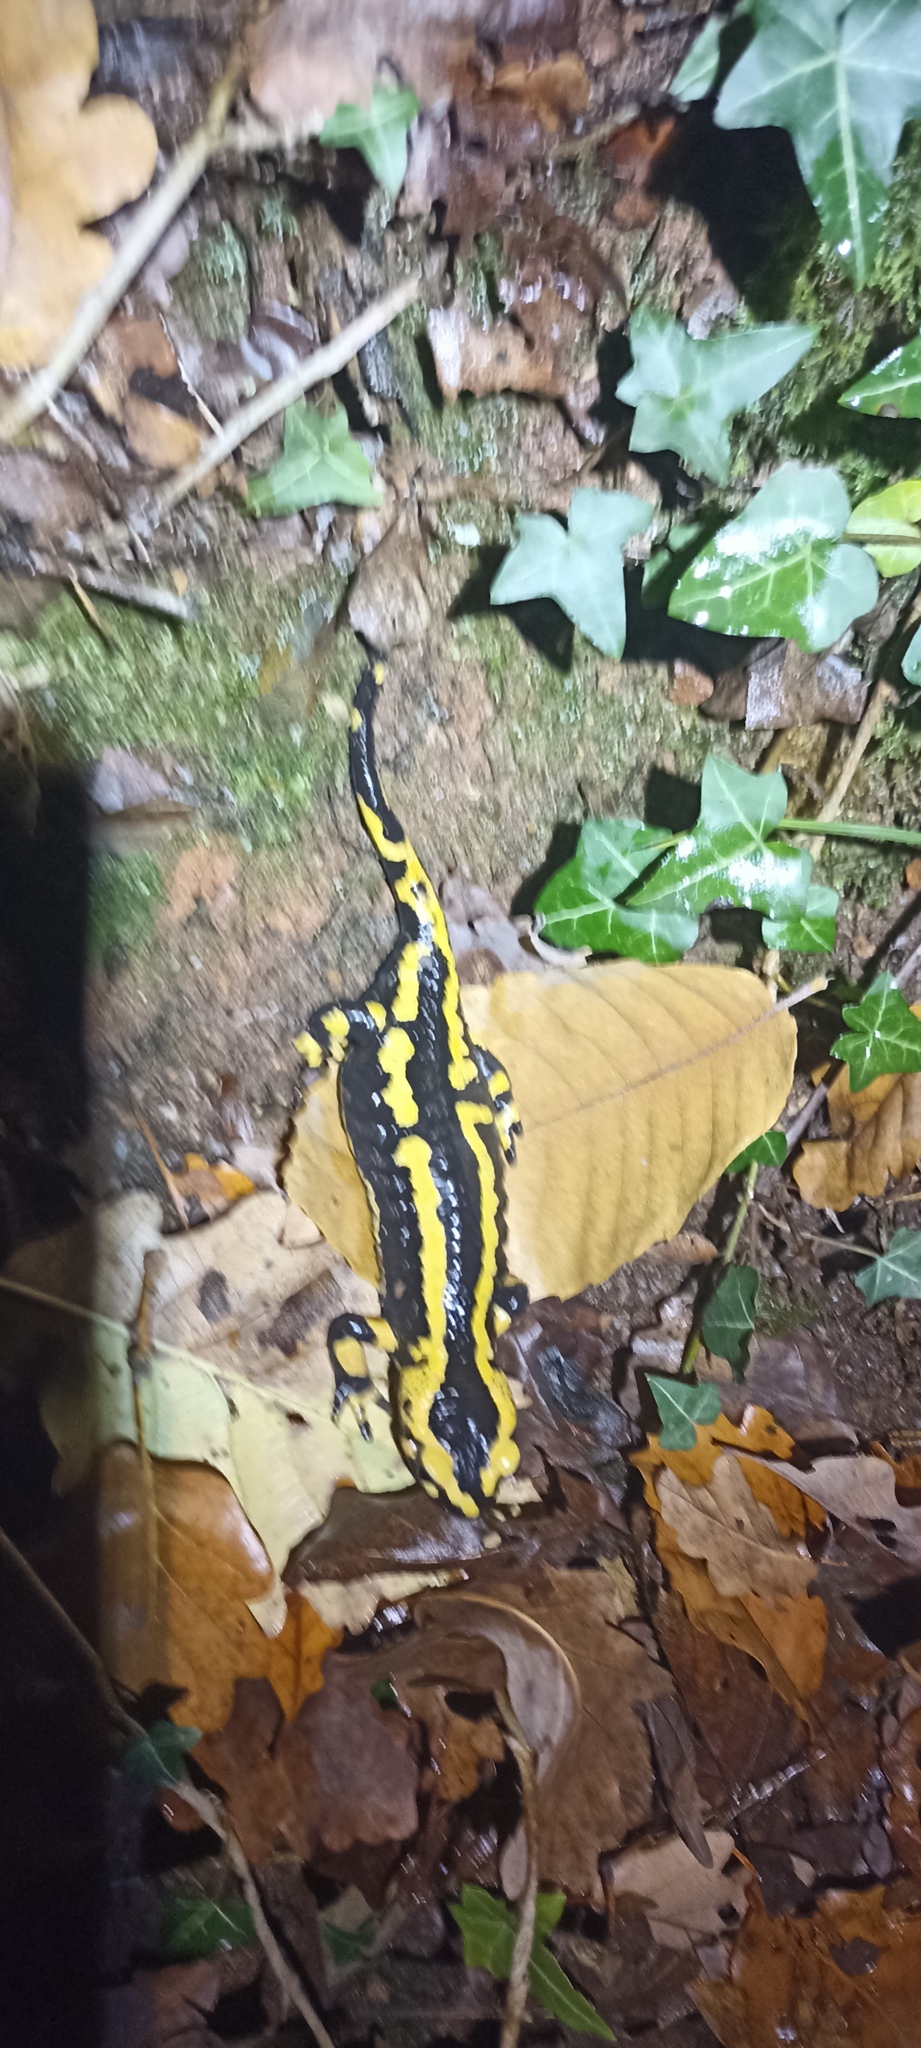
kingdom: Animalia
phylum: Chordata
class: Amphibia
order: Caudata
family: Salamandridae
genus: Salamandra
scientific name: Salamandra salamandra
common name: Fire salamander
